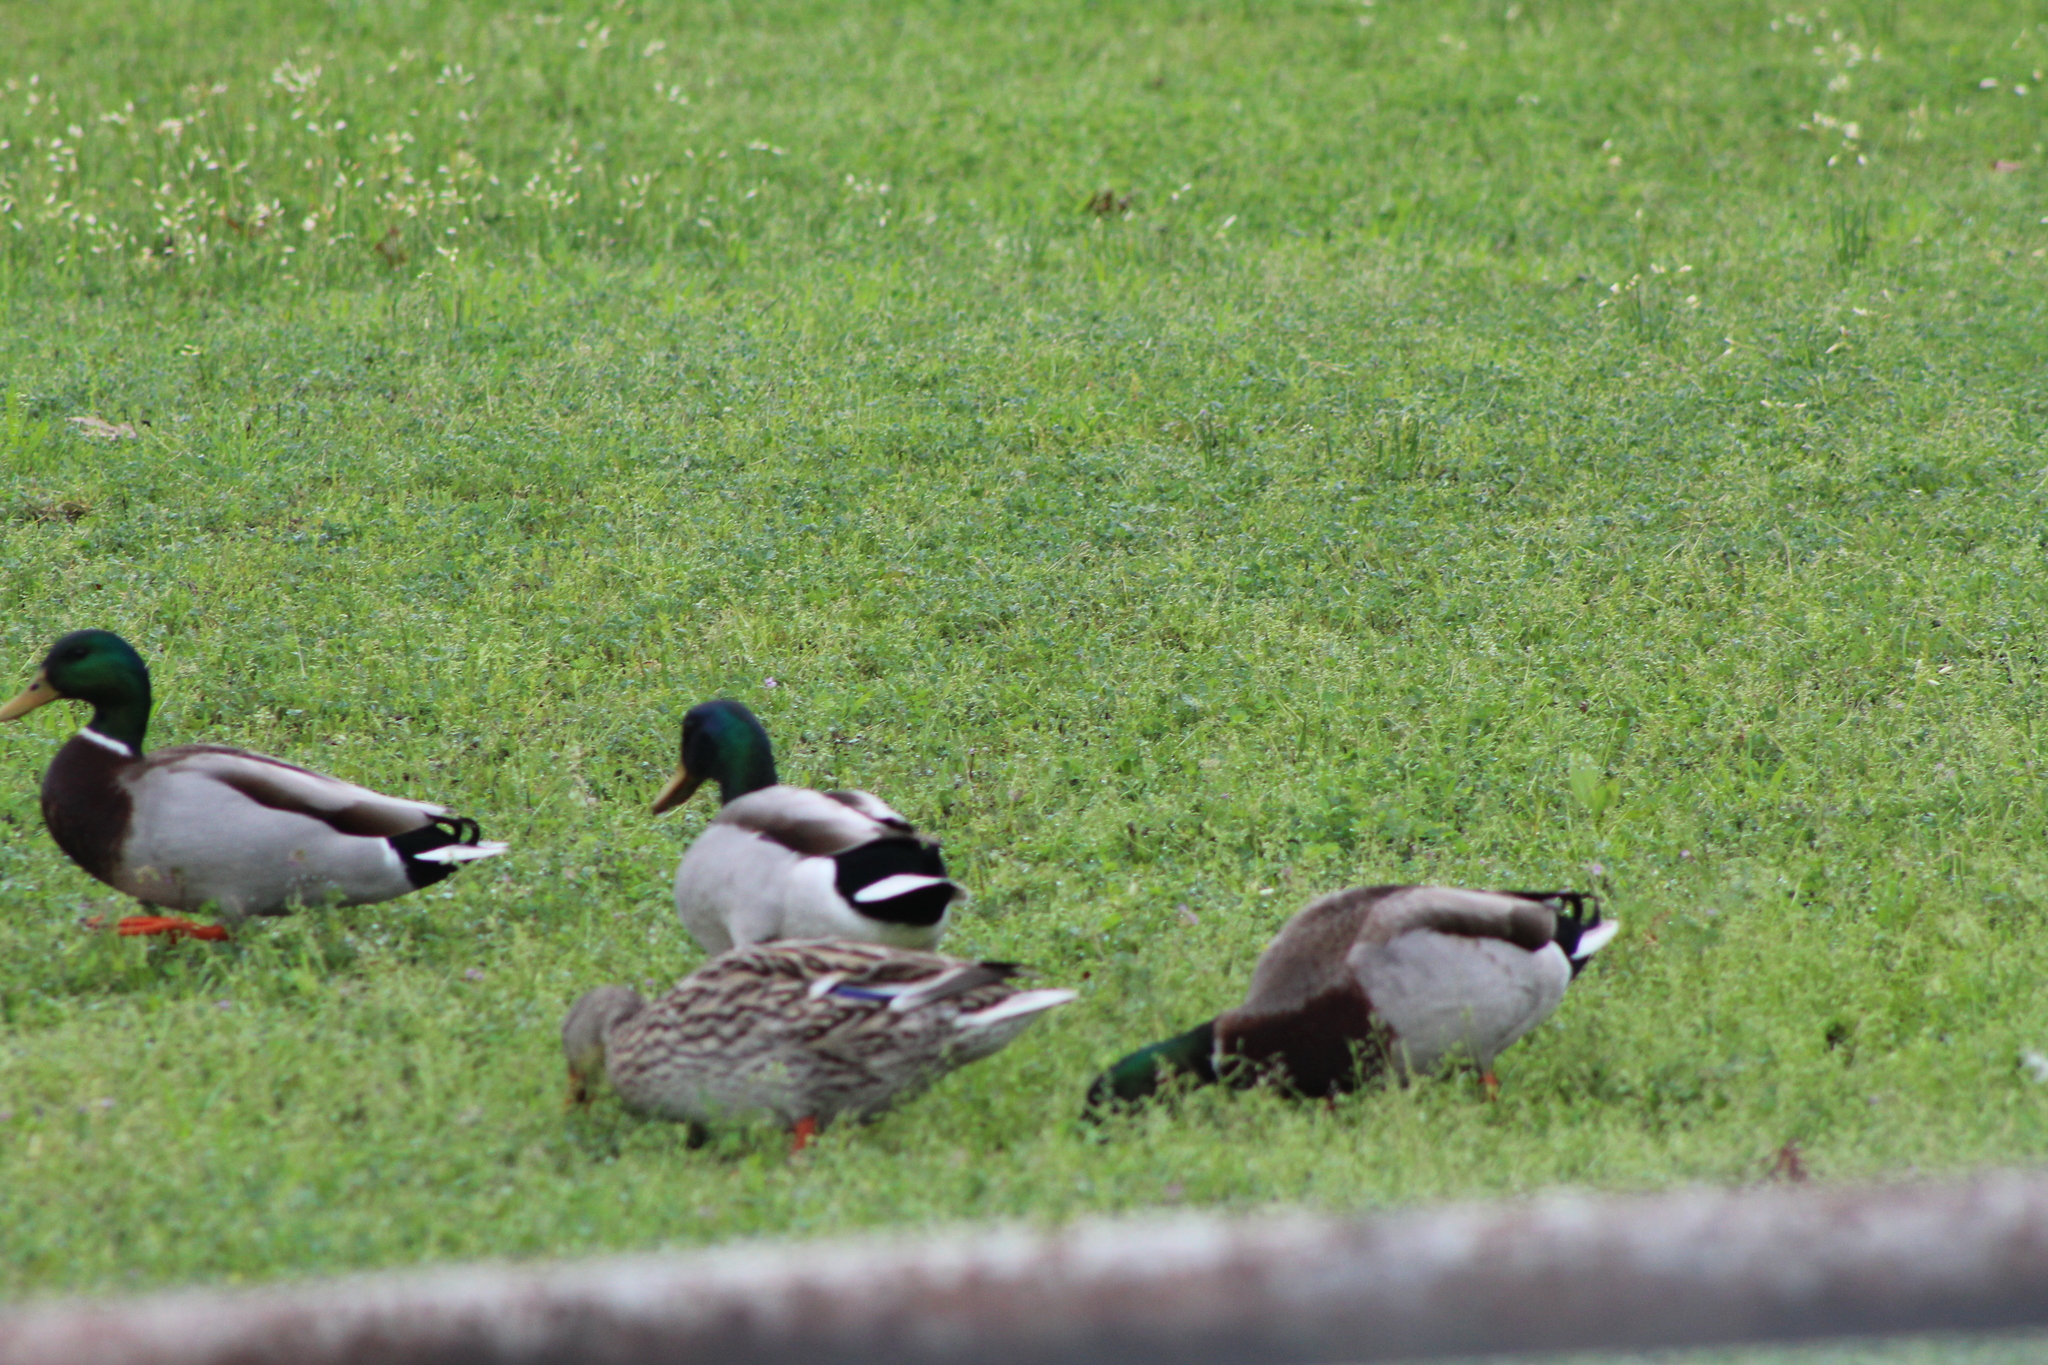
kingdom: Animalia
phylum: Chordata
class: Aves
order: Anseriformes
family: Anatidae
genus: Anas
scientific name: Anas platyrhynchos
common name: Mallard
